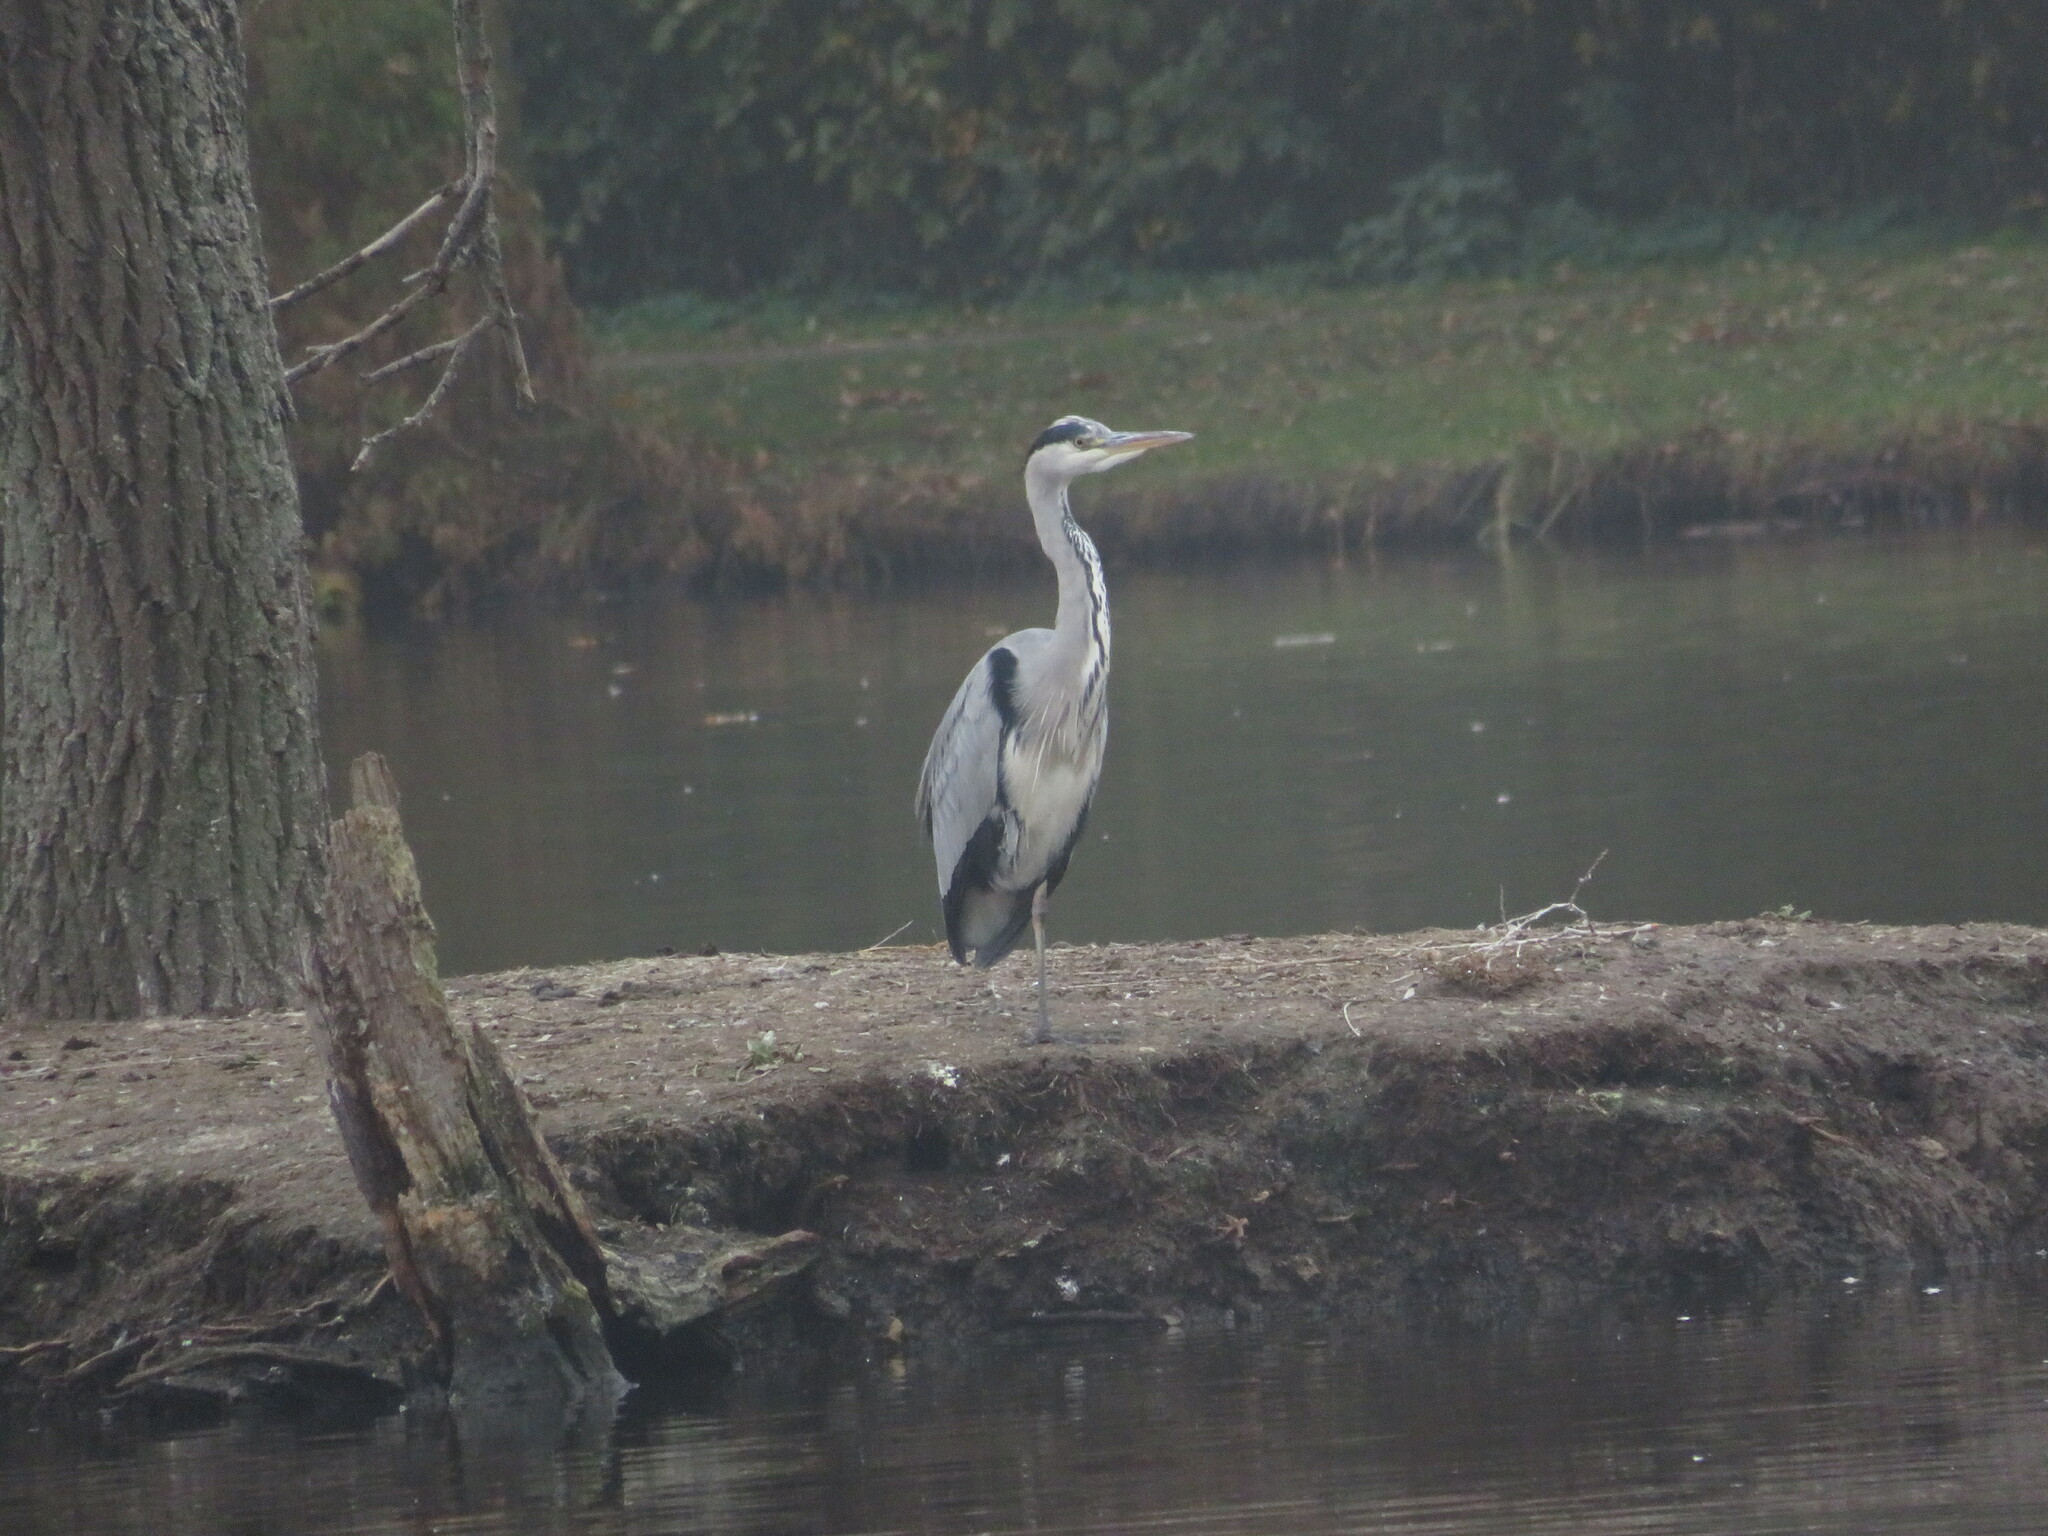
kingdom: Animalia
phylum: Chordata
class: Aves
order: Pelecaniformes
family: Ardeidae
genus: Ardea
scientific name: Ardea cinerea
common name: Grey heron
